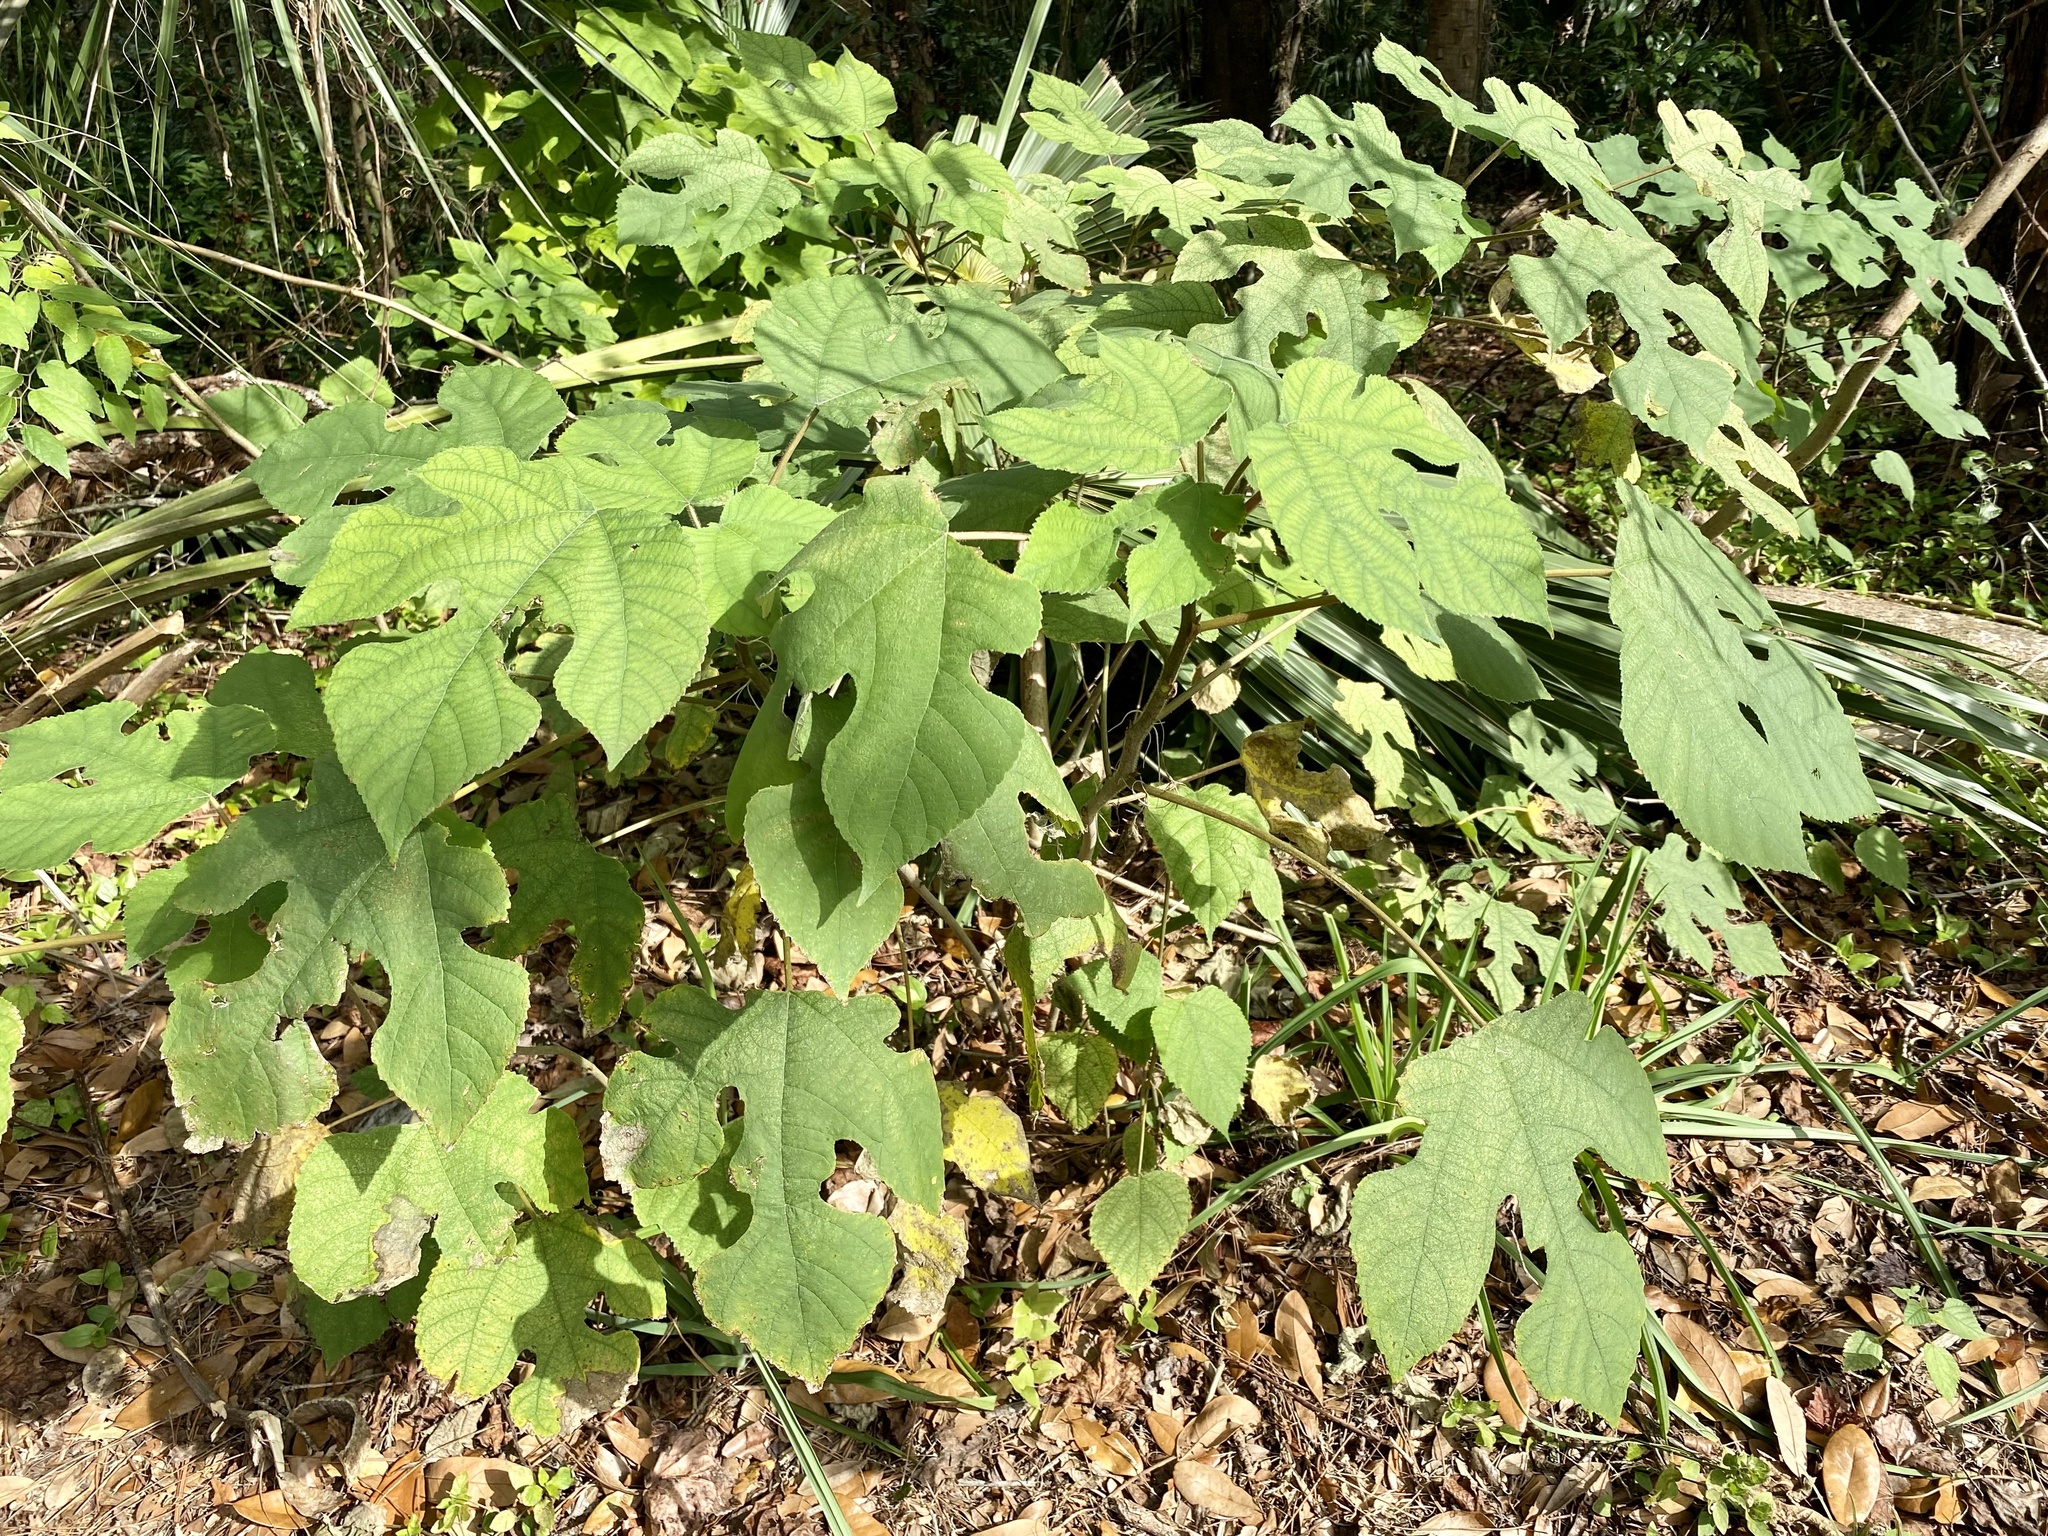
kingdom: Plantae
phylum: Tracheophyta
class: Magnoliopsida
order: Rosales
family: Moraceae
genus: Broussonetia
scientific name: Broussonetia papyrifera
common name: Paper mulberry
